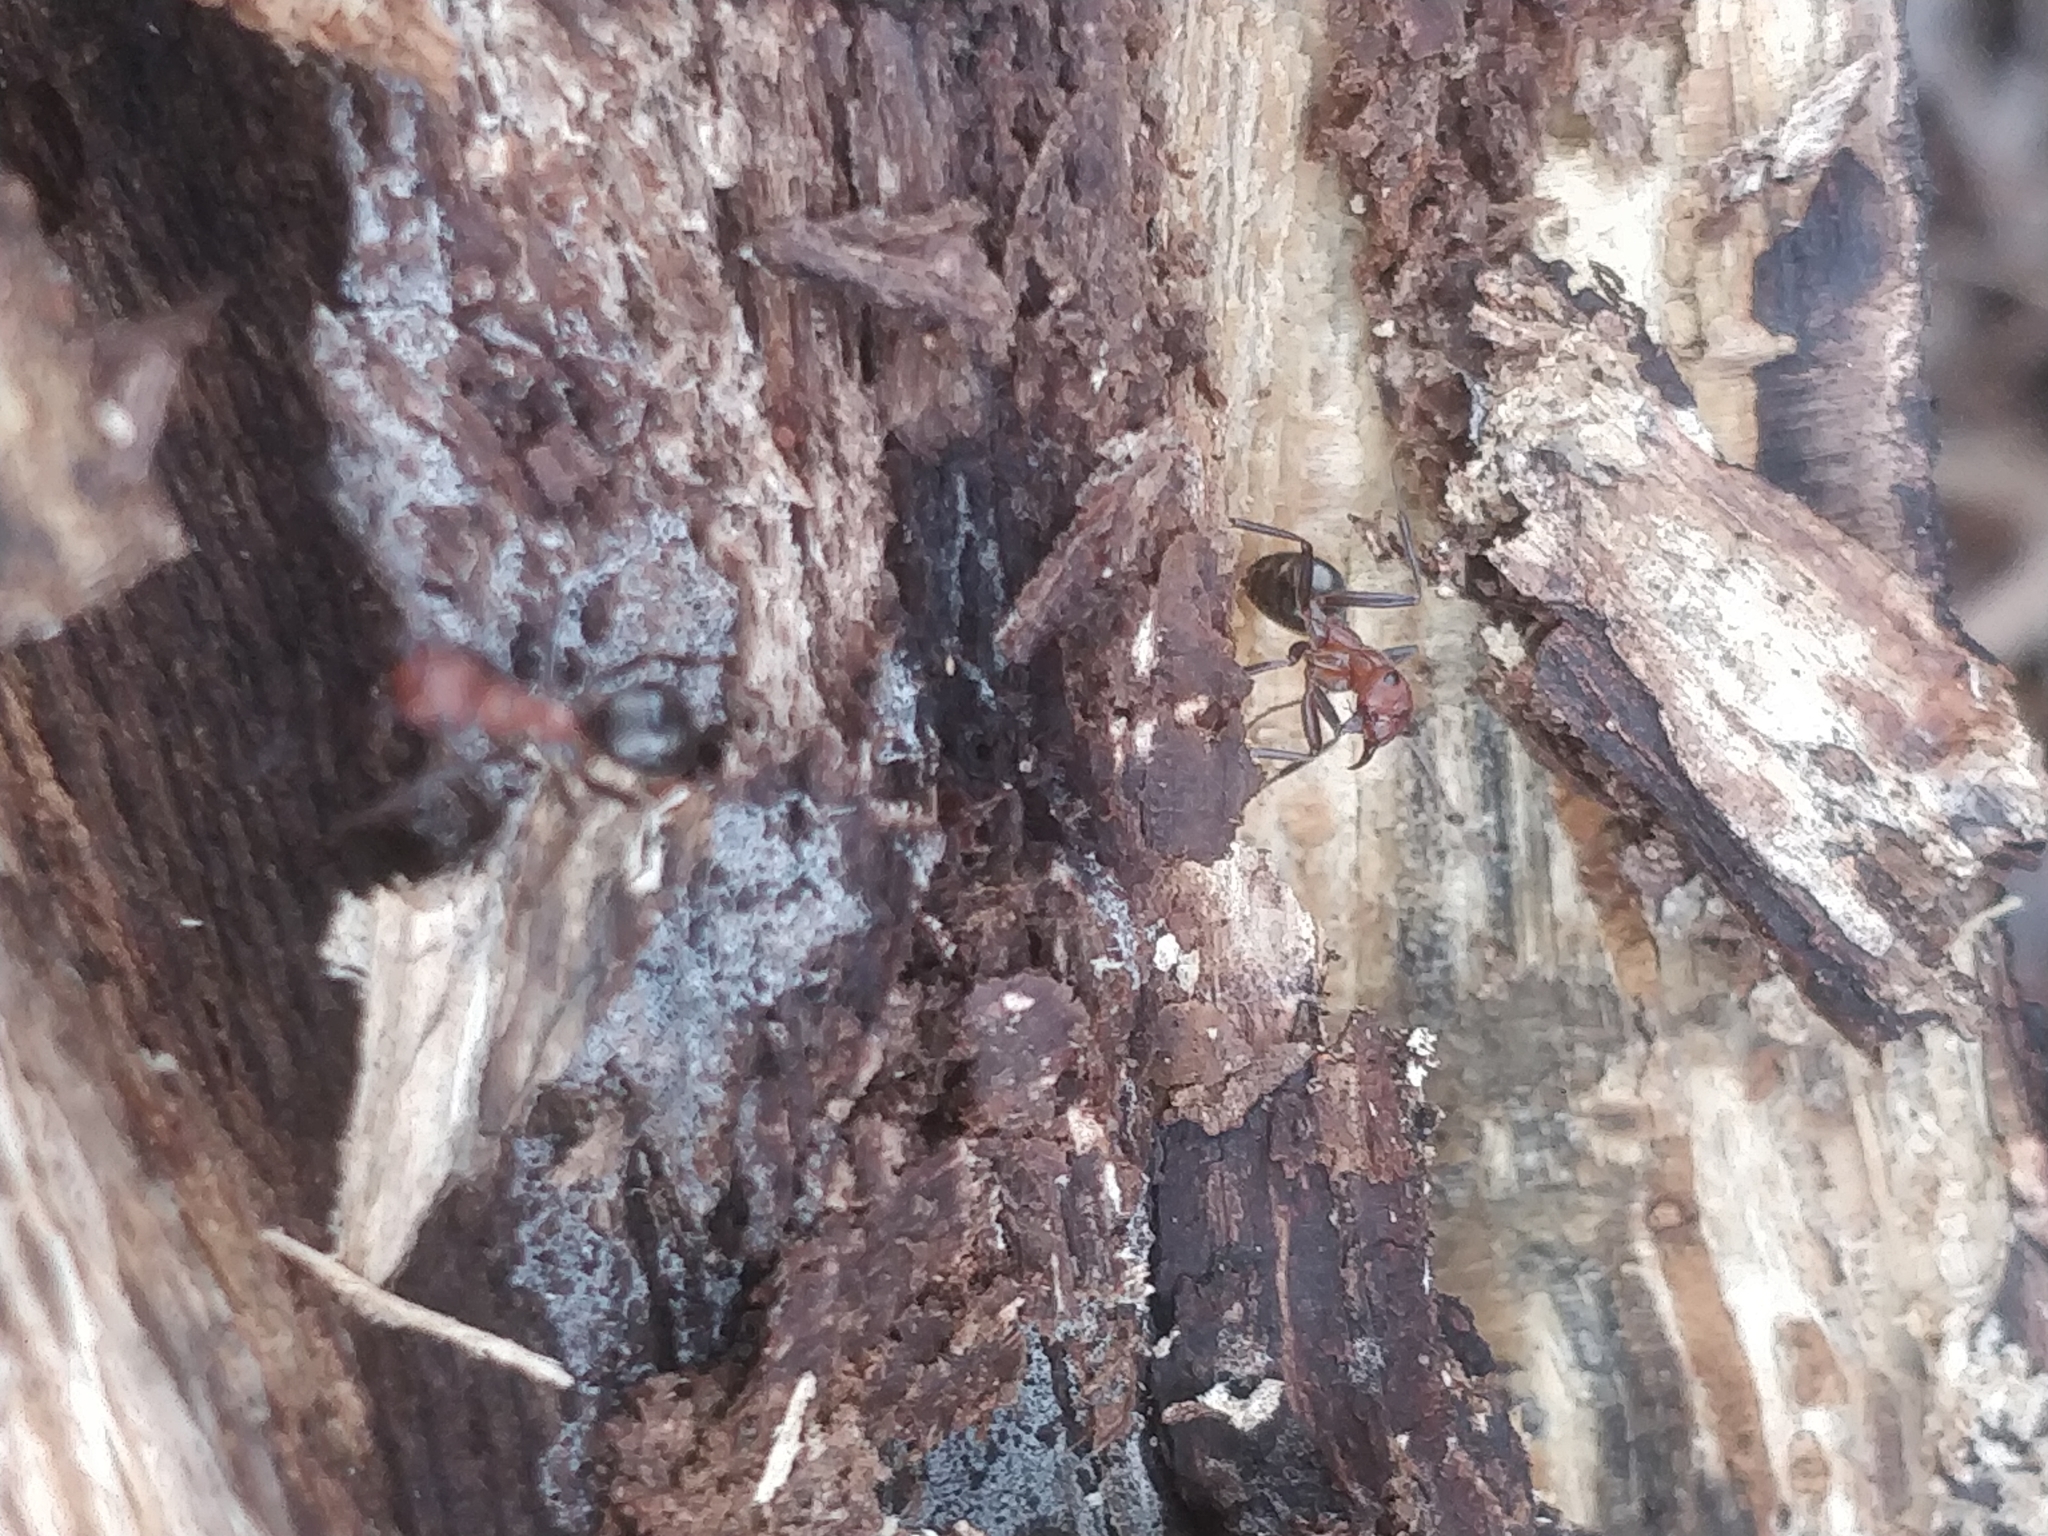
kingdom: Animalia
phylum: Arthropoda
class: Insecta
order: Hymenoptera
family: Formicidae
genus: Formica
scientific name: Formica obscuriventris
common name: Northern red wood ant
